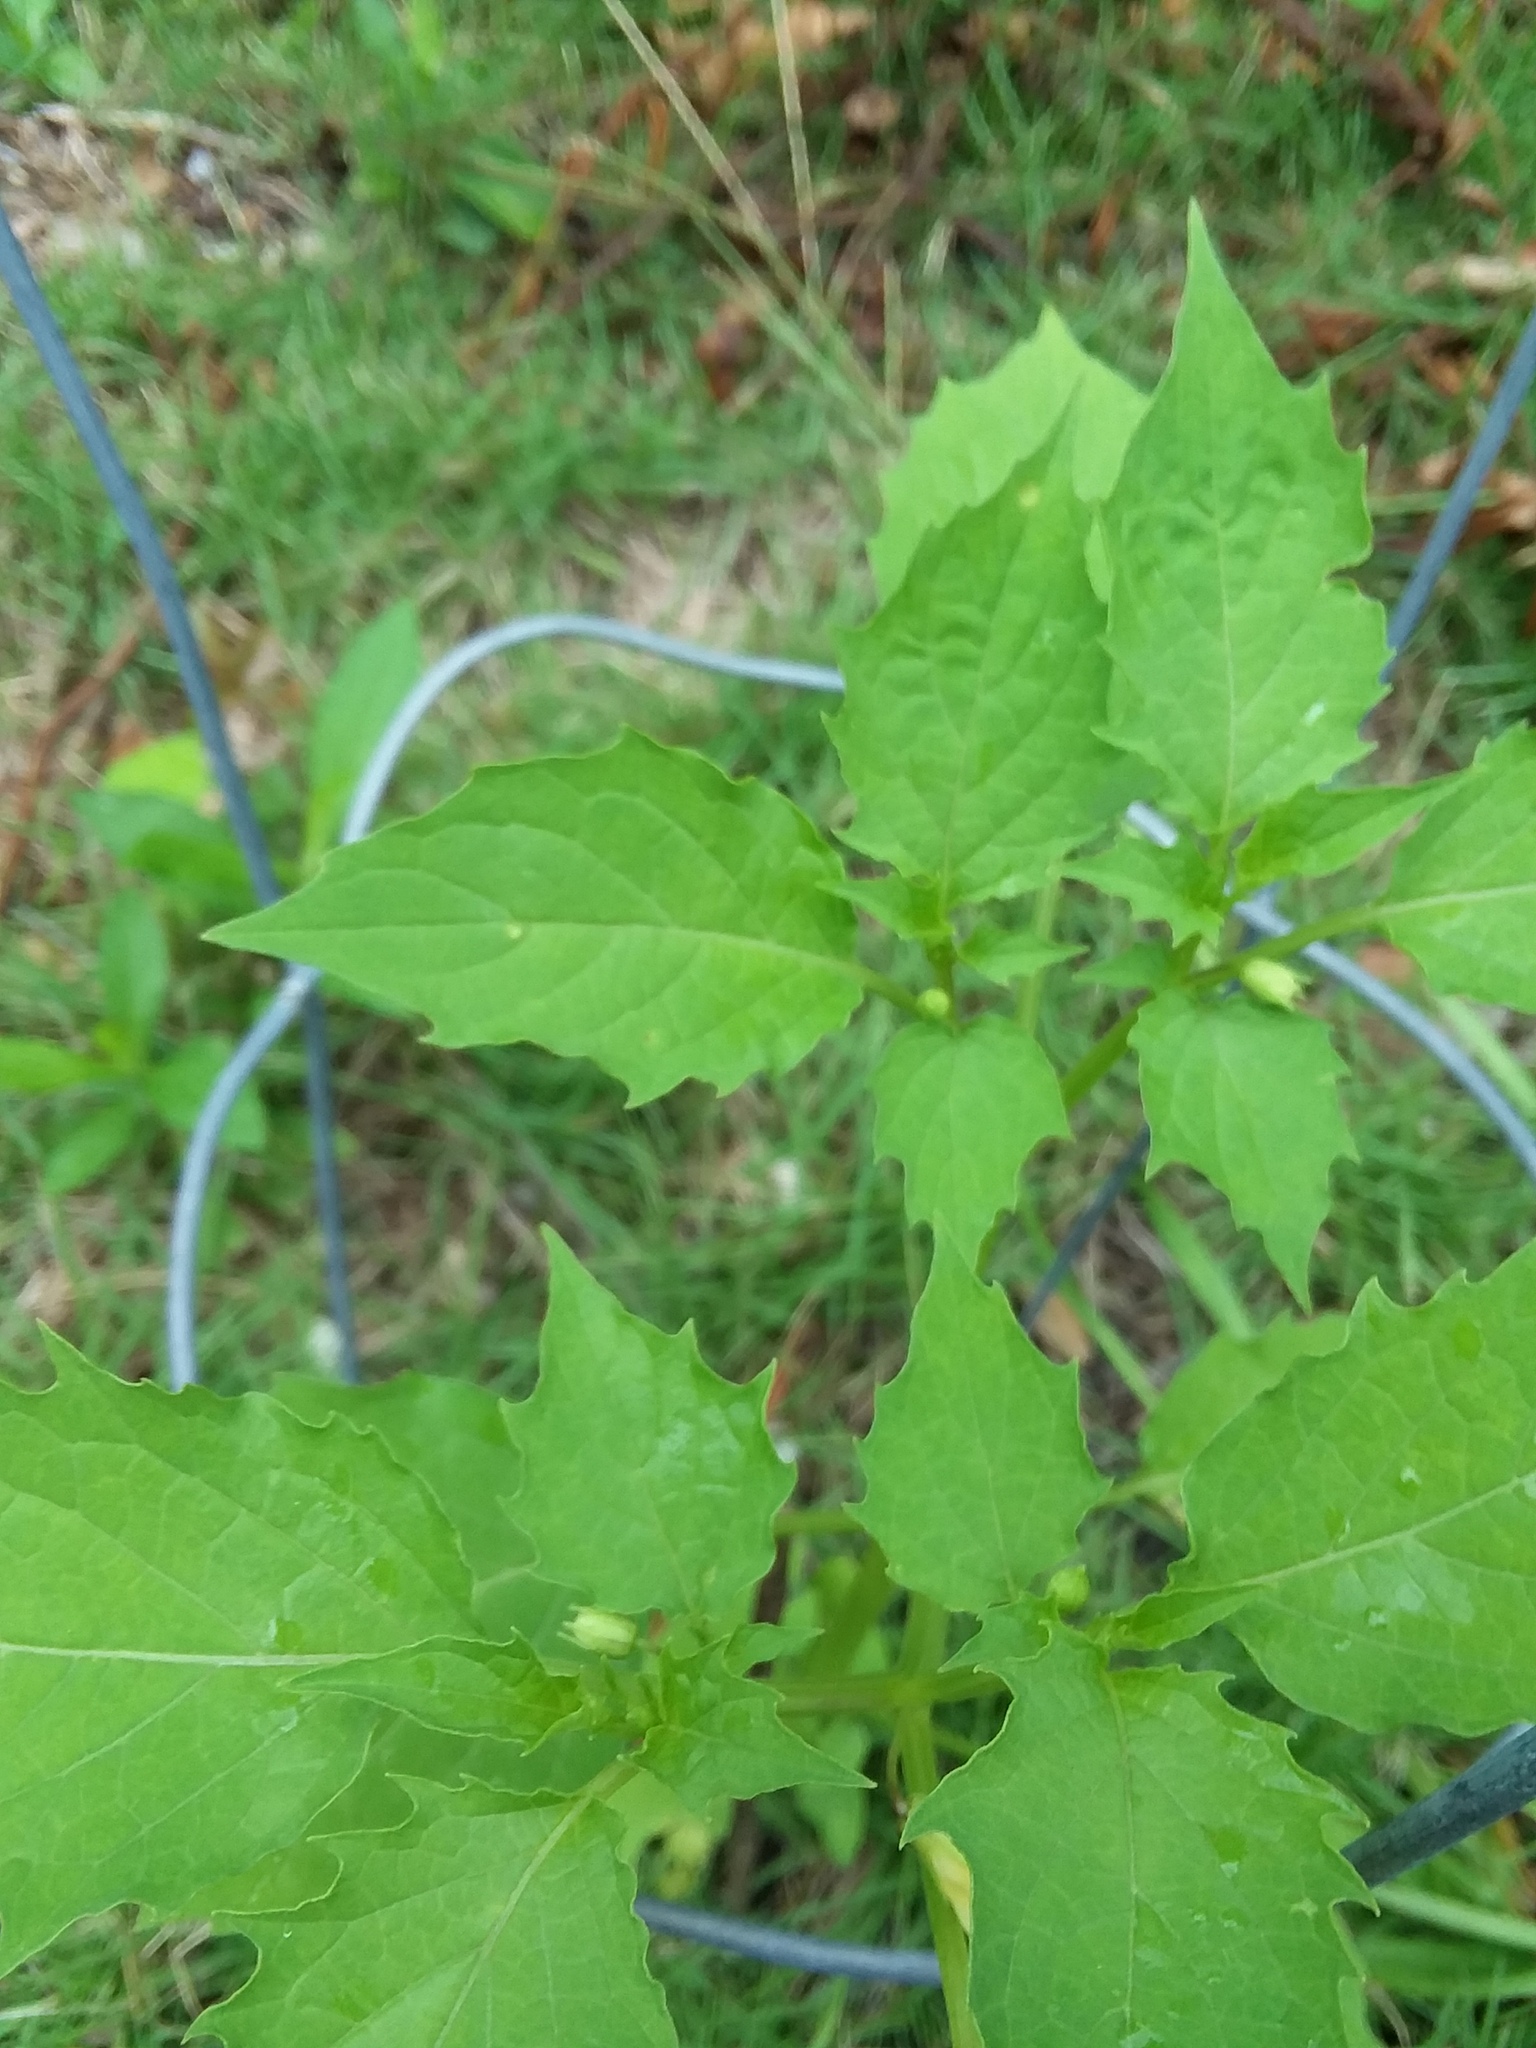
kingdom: Plantae
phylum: Tracheophyta
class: Magnoliopsida
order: Solanales
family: Solanaceae
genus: Physalis
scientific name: Physalis angulata
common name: Angular winter-cherry
